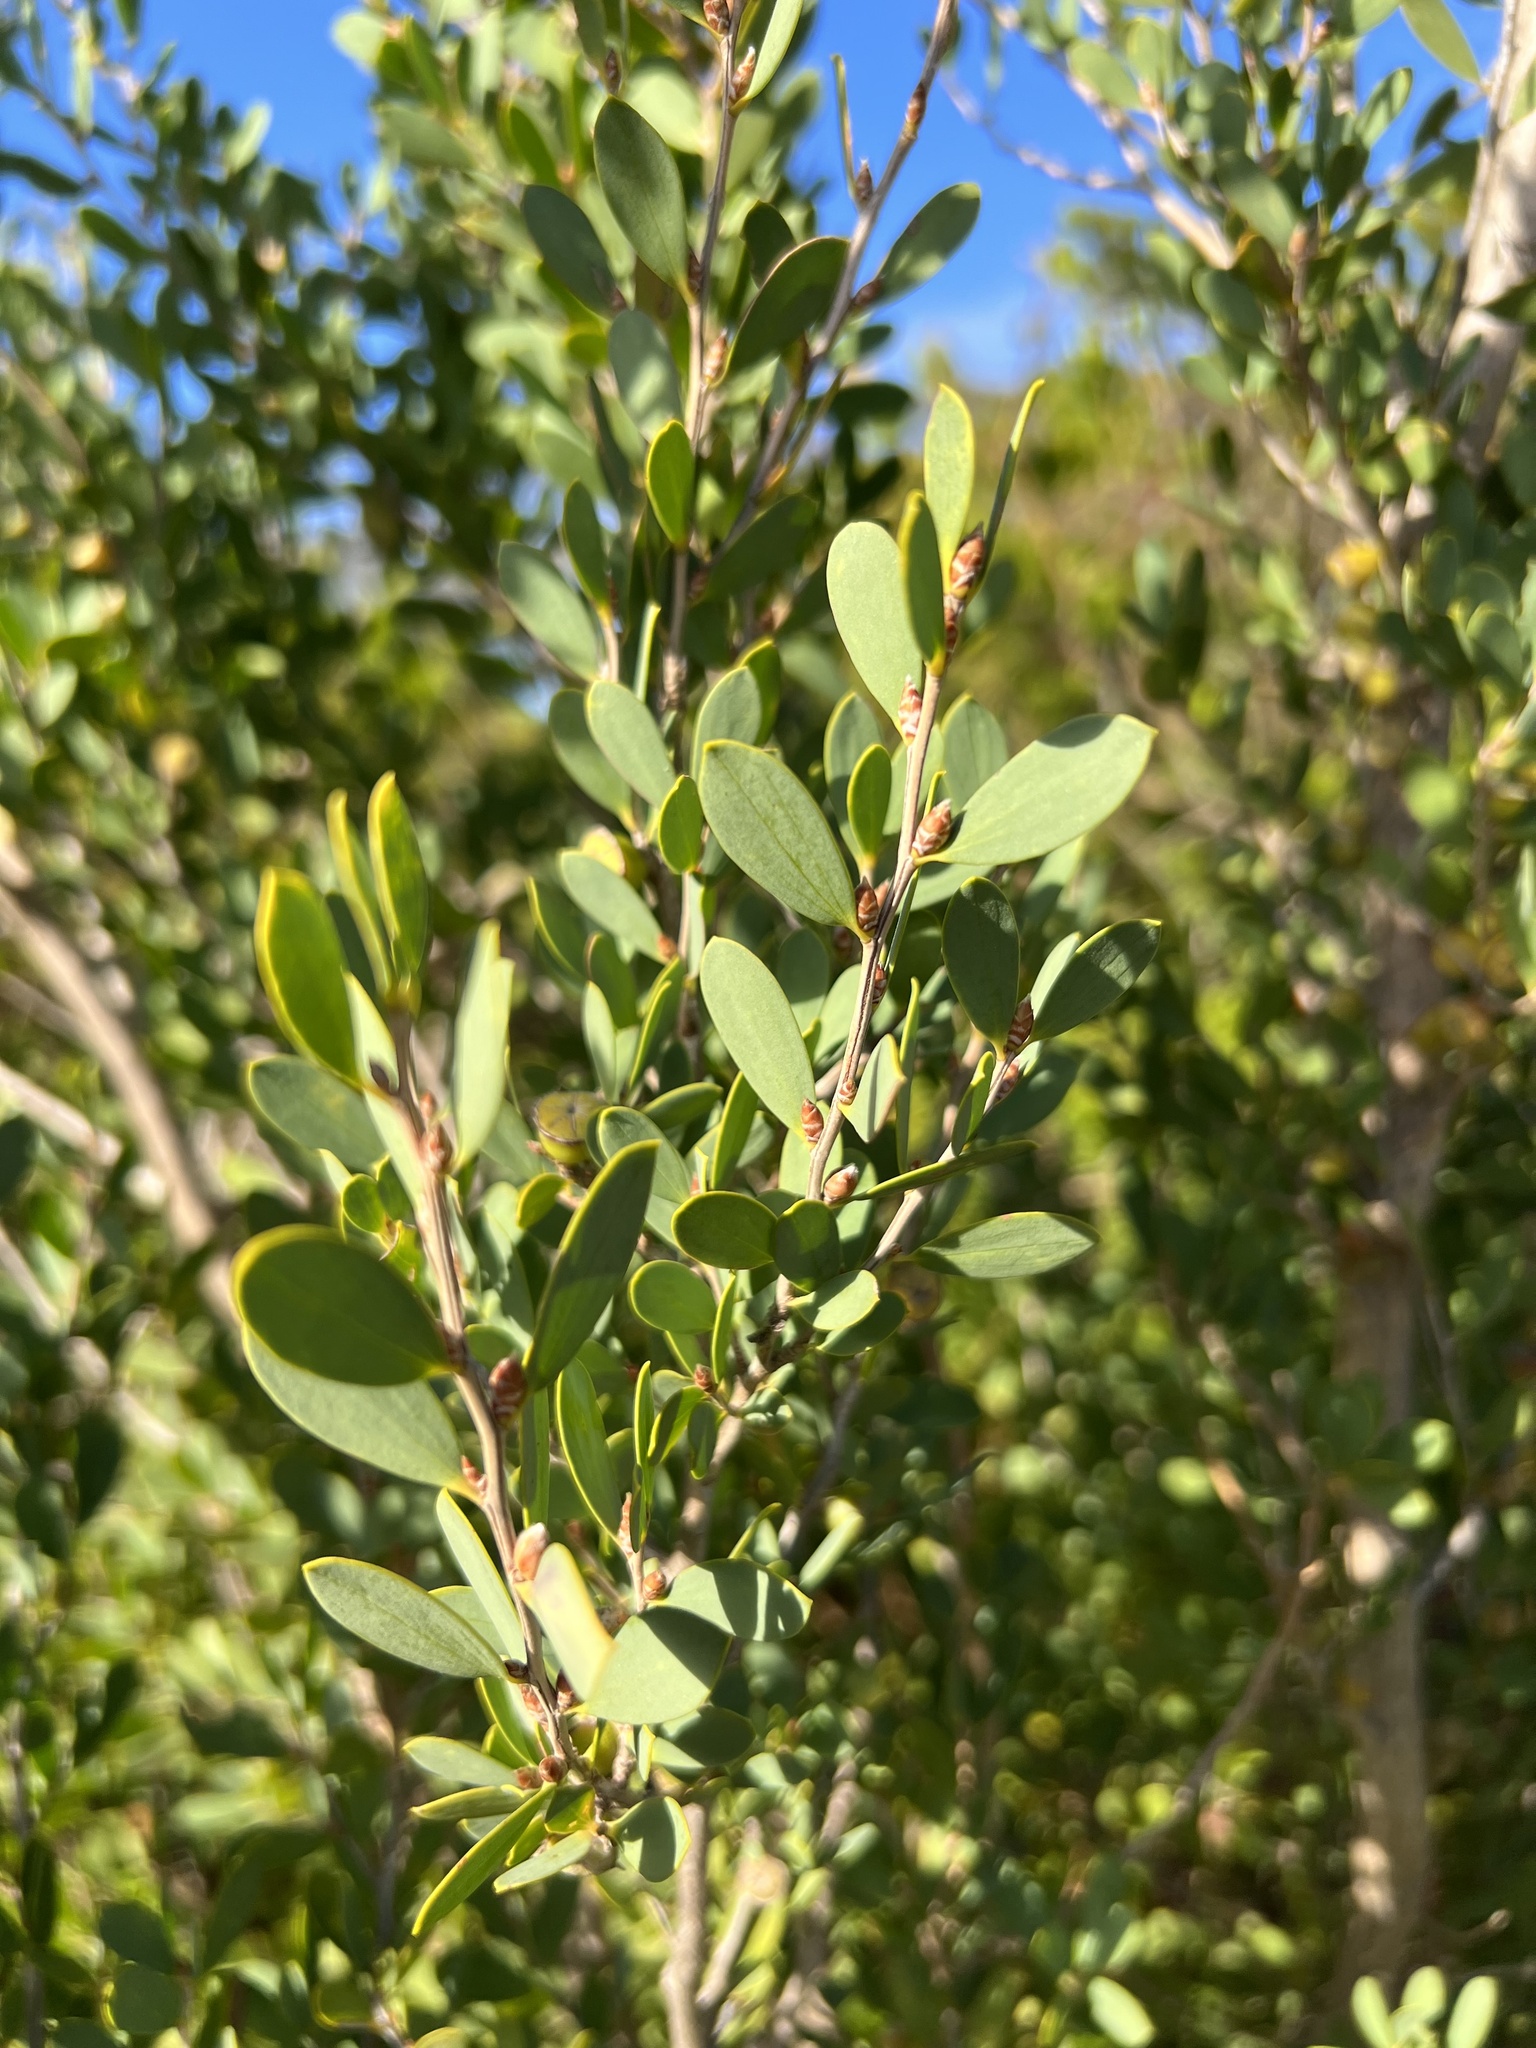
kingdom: Plantae
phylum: Tracheophyta
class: Magnoliopsida
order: Myrtales
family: Myrtaceae
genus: Leptospermum
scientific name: Leptospermum laevigatum
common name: Australian teatree
